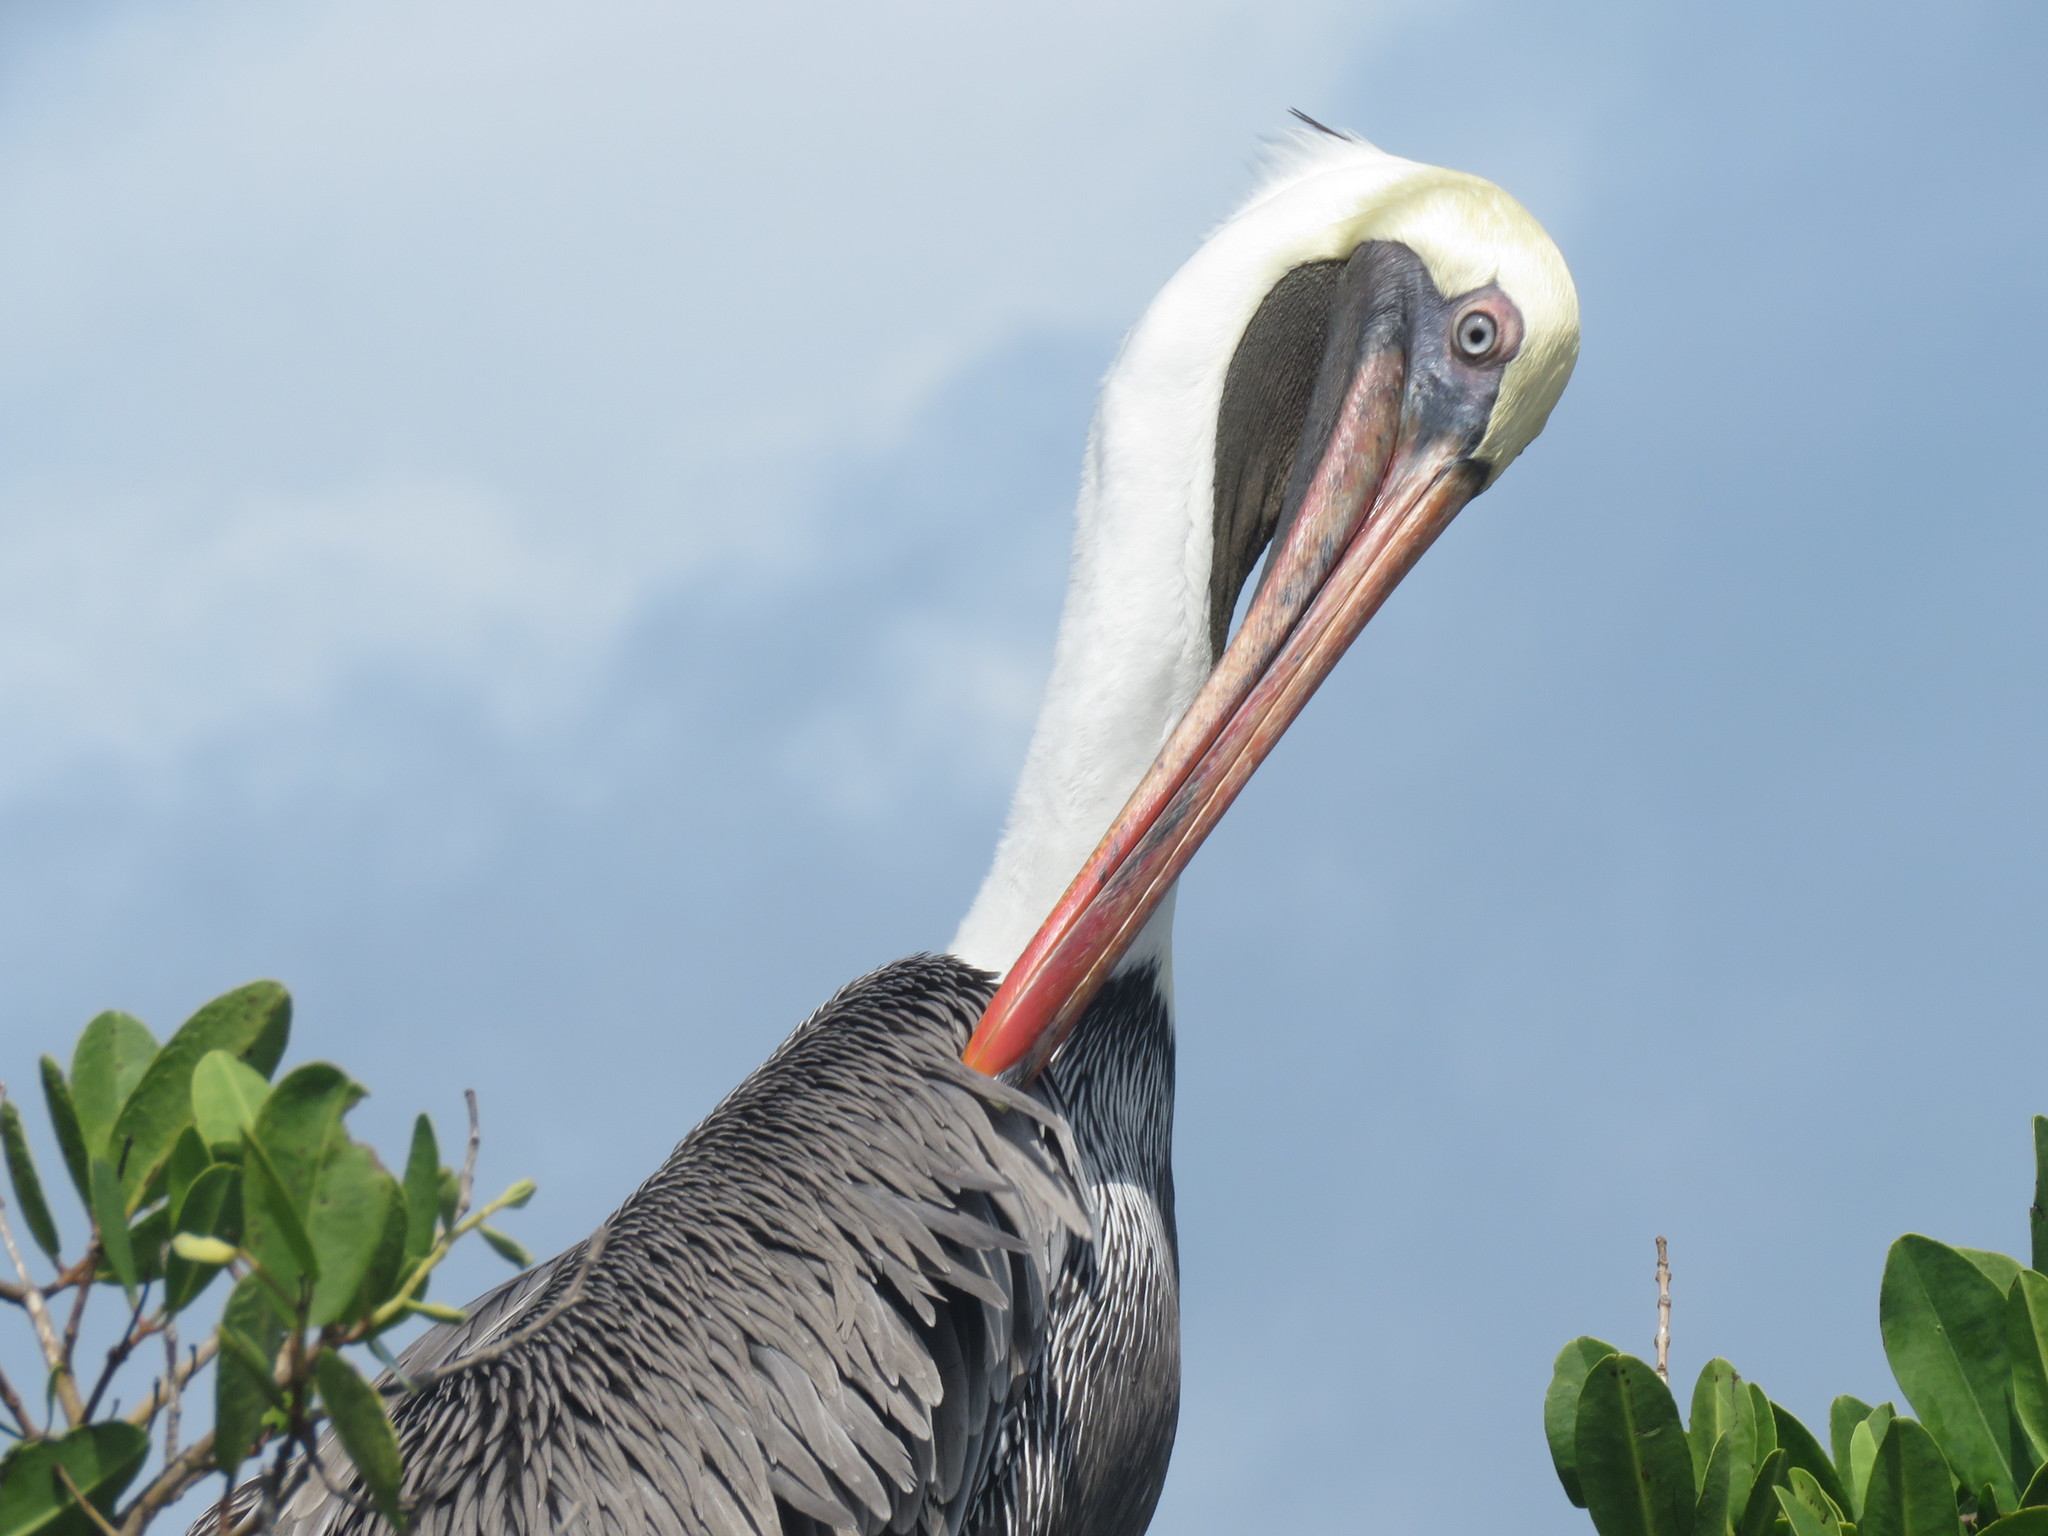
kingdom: Animalia
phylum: Chordata
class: Aves
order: Pelecaniformes
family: Pelecanidae
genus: Pelecanus
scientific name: Pelecanus occidentalis
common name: Brown pelican
